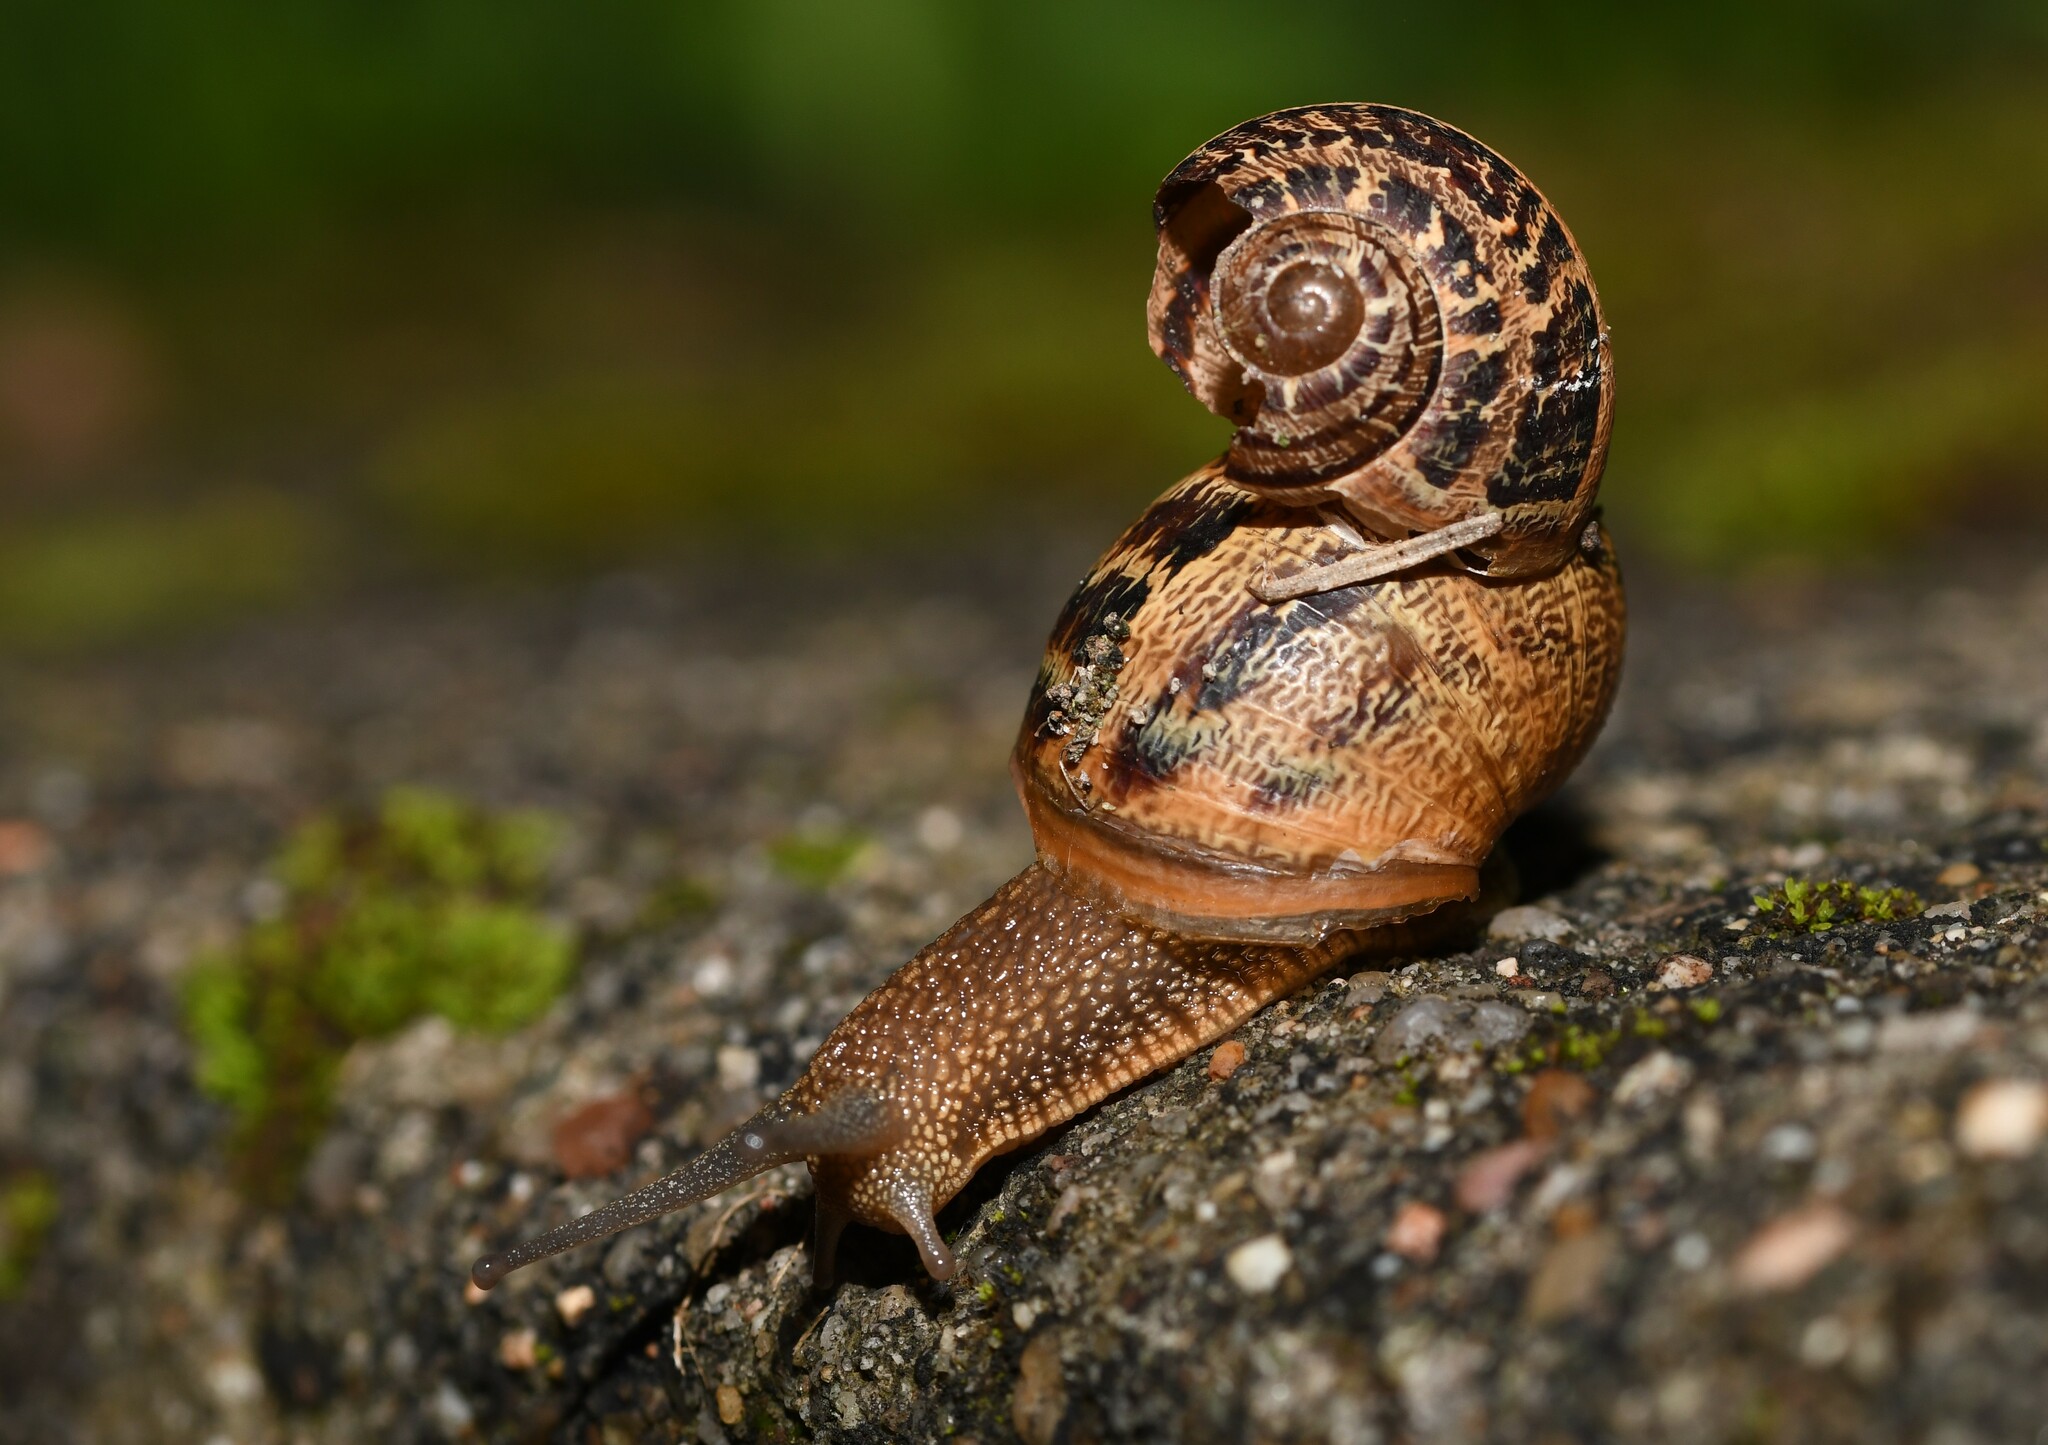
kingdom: Animalia
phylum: Mollusca
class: Gastropoda
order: Stylommatophora
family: Helicidae
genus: Cornu
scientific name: Cornu aspersum
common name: Brown garden snail
